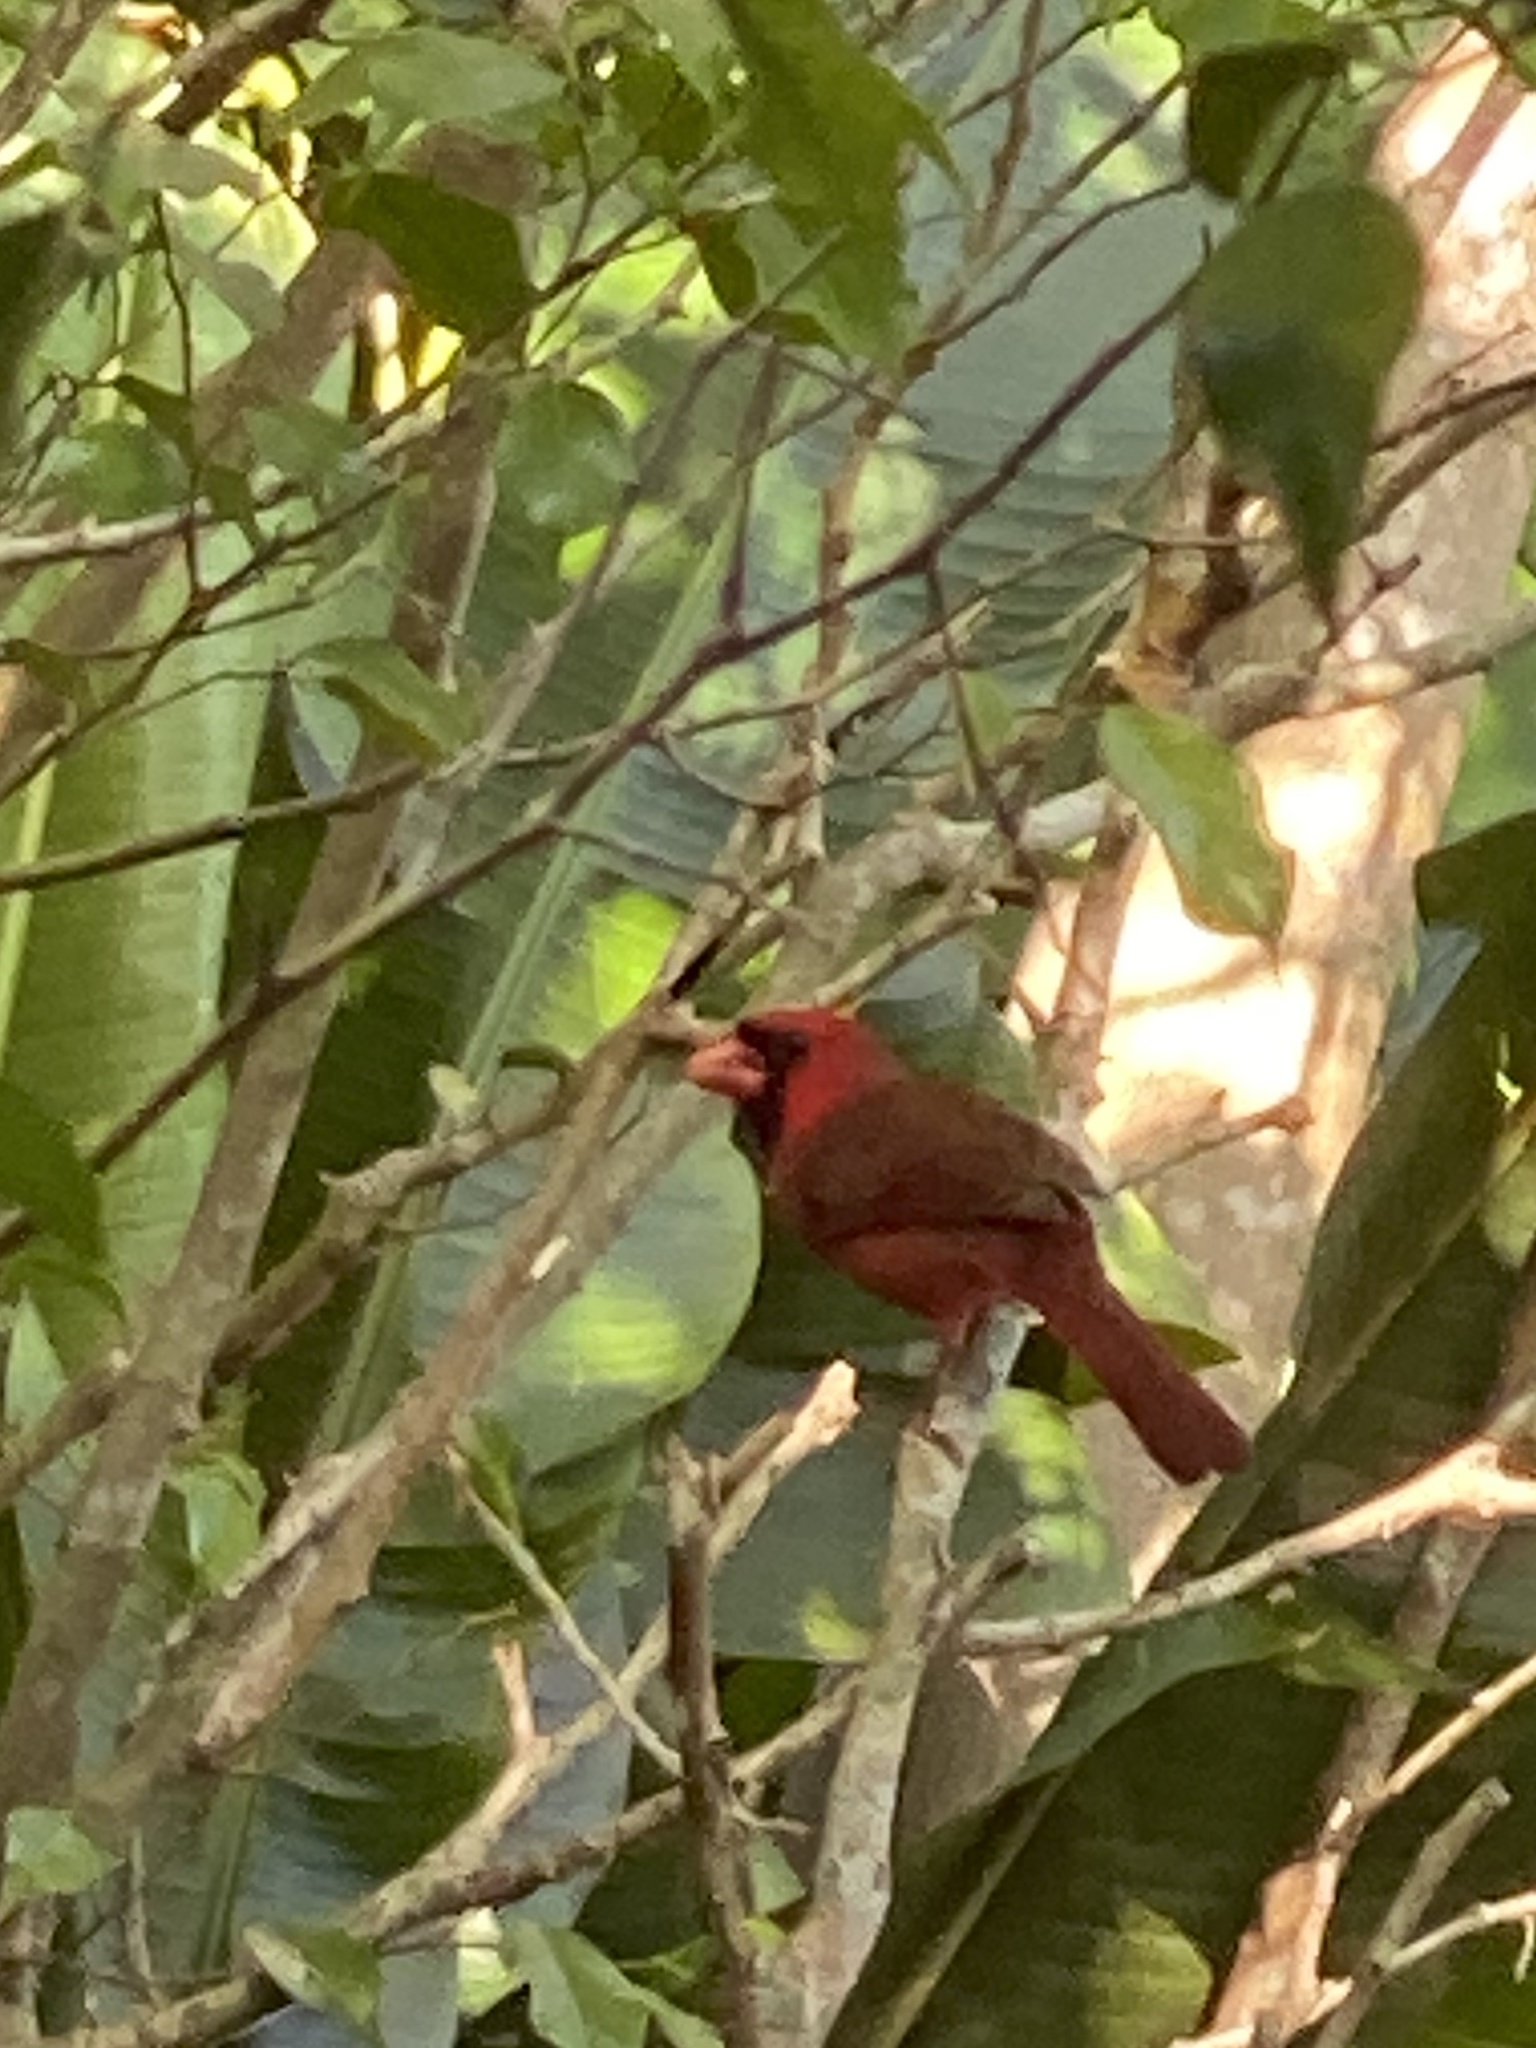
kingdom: Animalia
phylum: Chordata
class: Aves
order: Passeriformes
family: Cardinalidae
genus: Cardinalis
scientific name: Cardinalis cardinalis
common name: Northern cardinal
